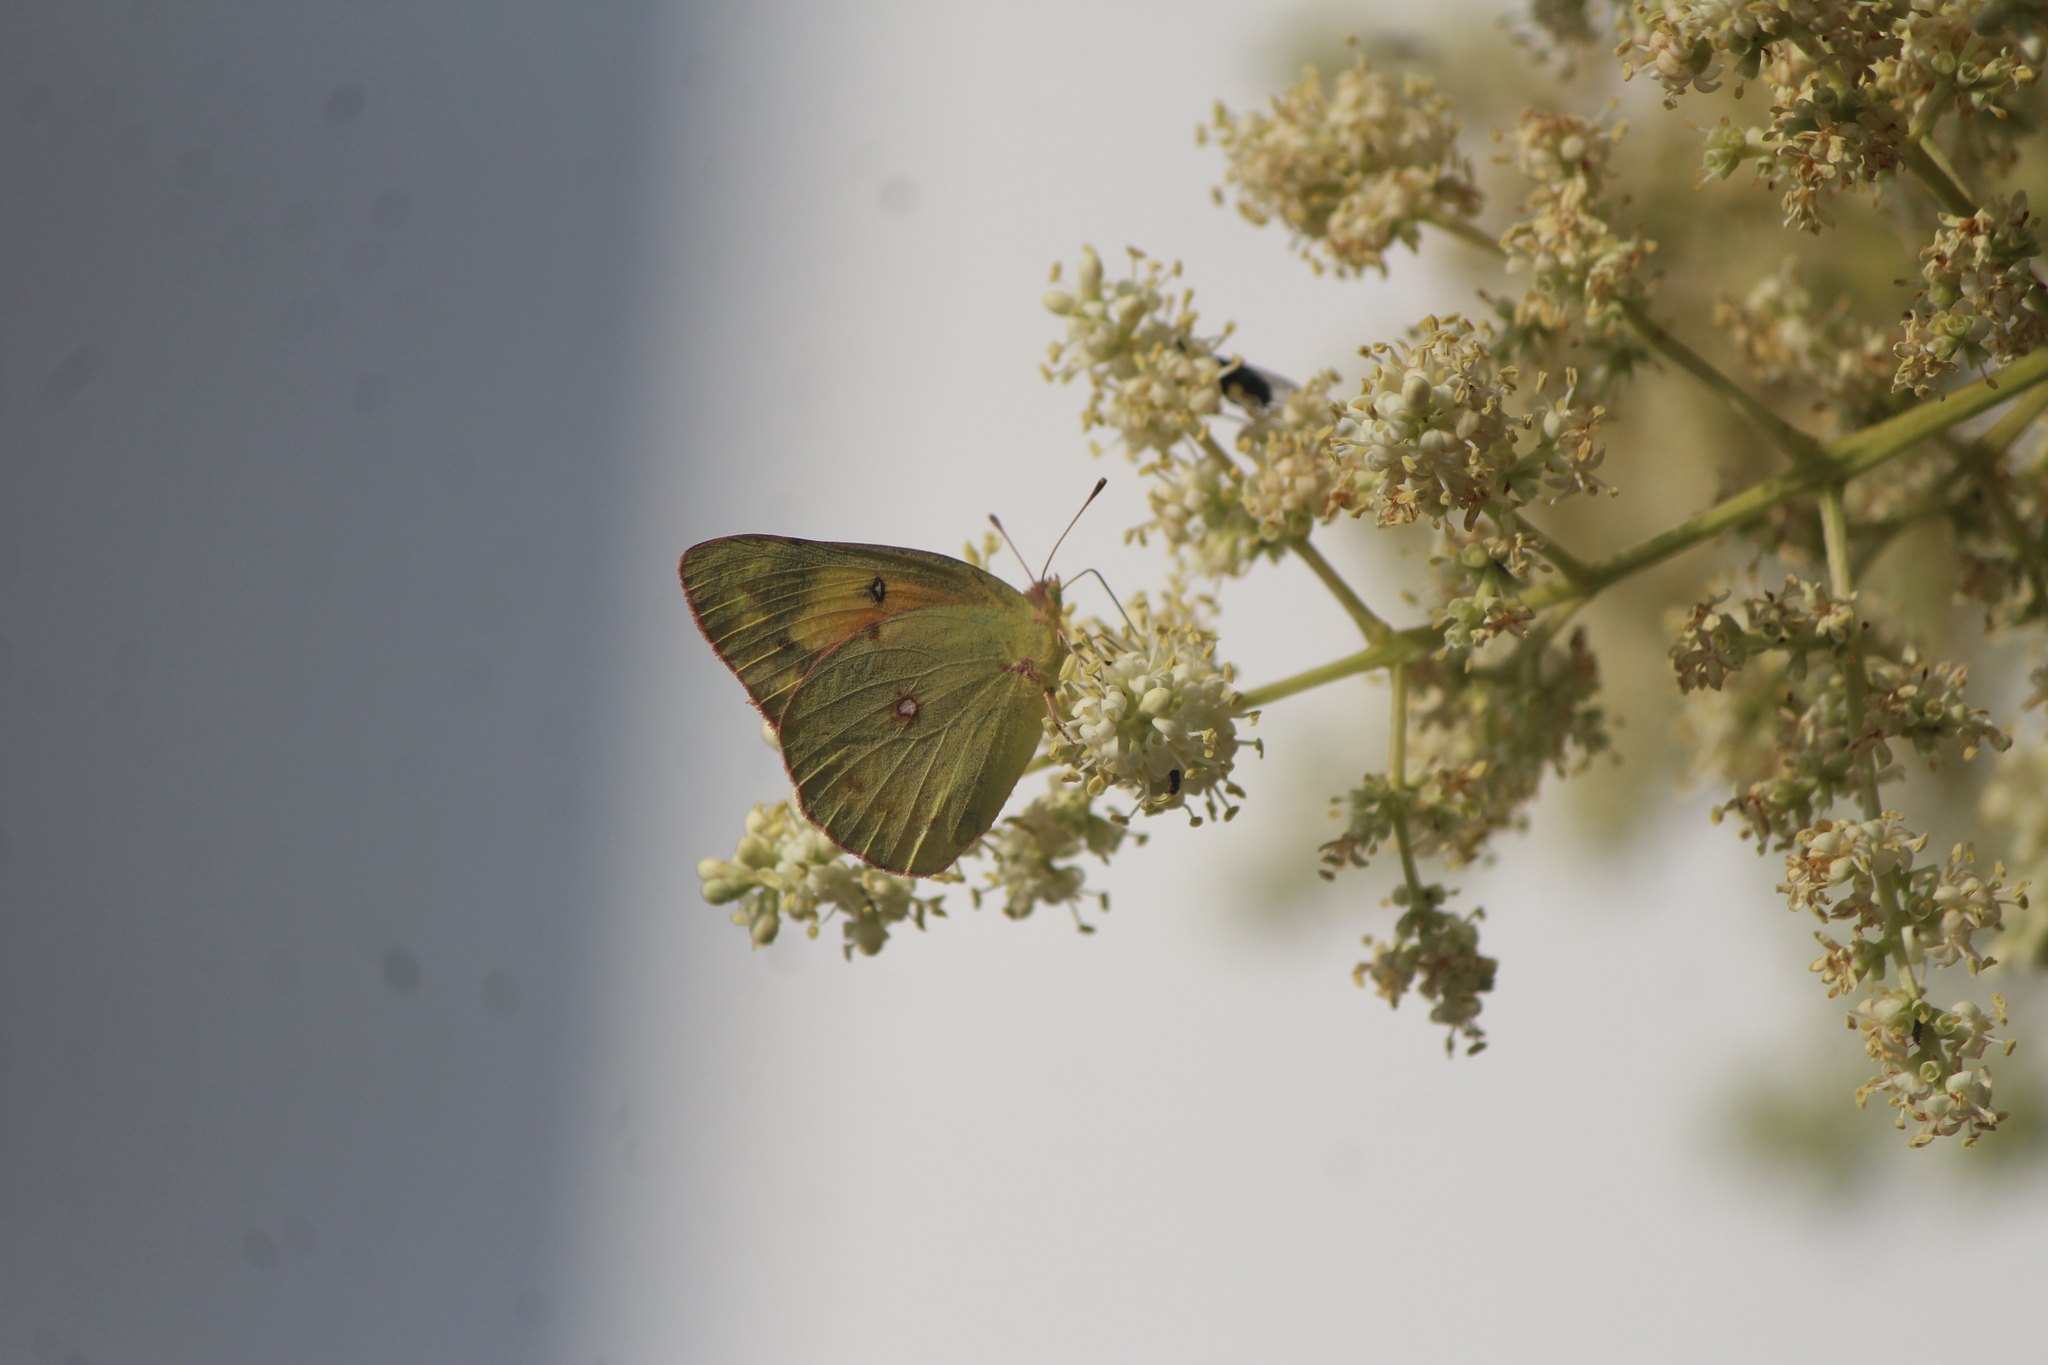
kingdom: Animalia
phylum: Arthropoda
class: Insecta
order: Lepidoptera
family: Pieridae
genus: Colias
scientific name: Colias eurytheme
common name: Alfalfa butterfly
